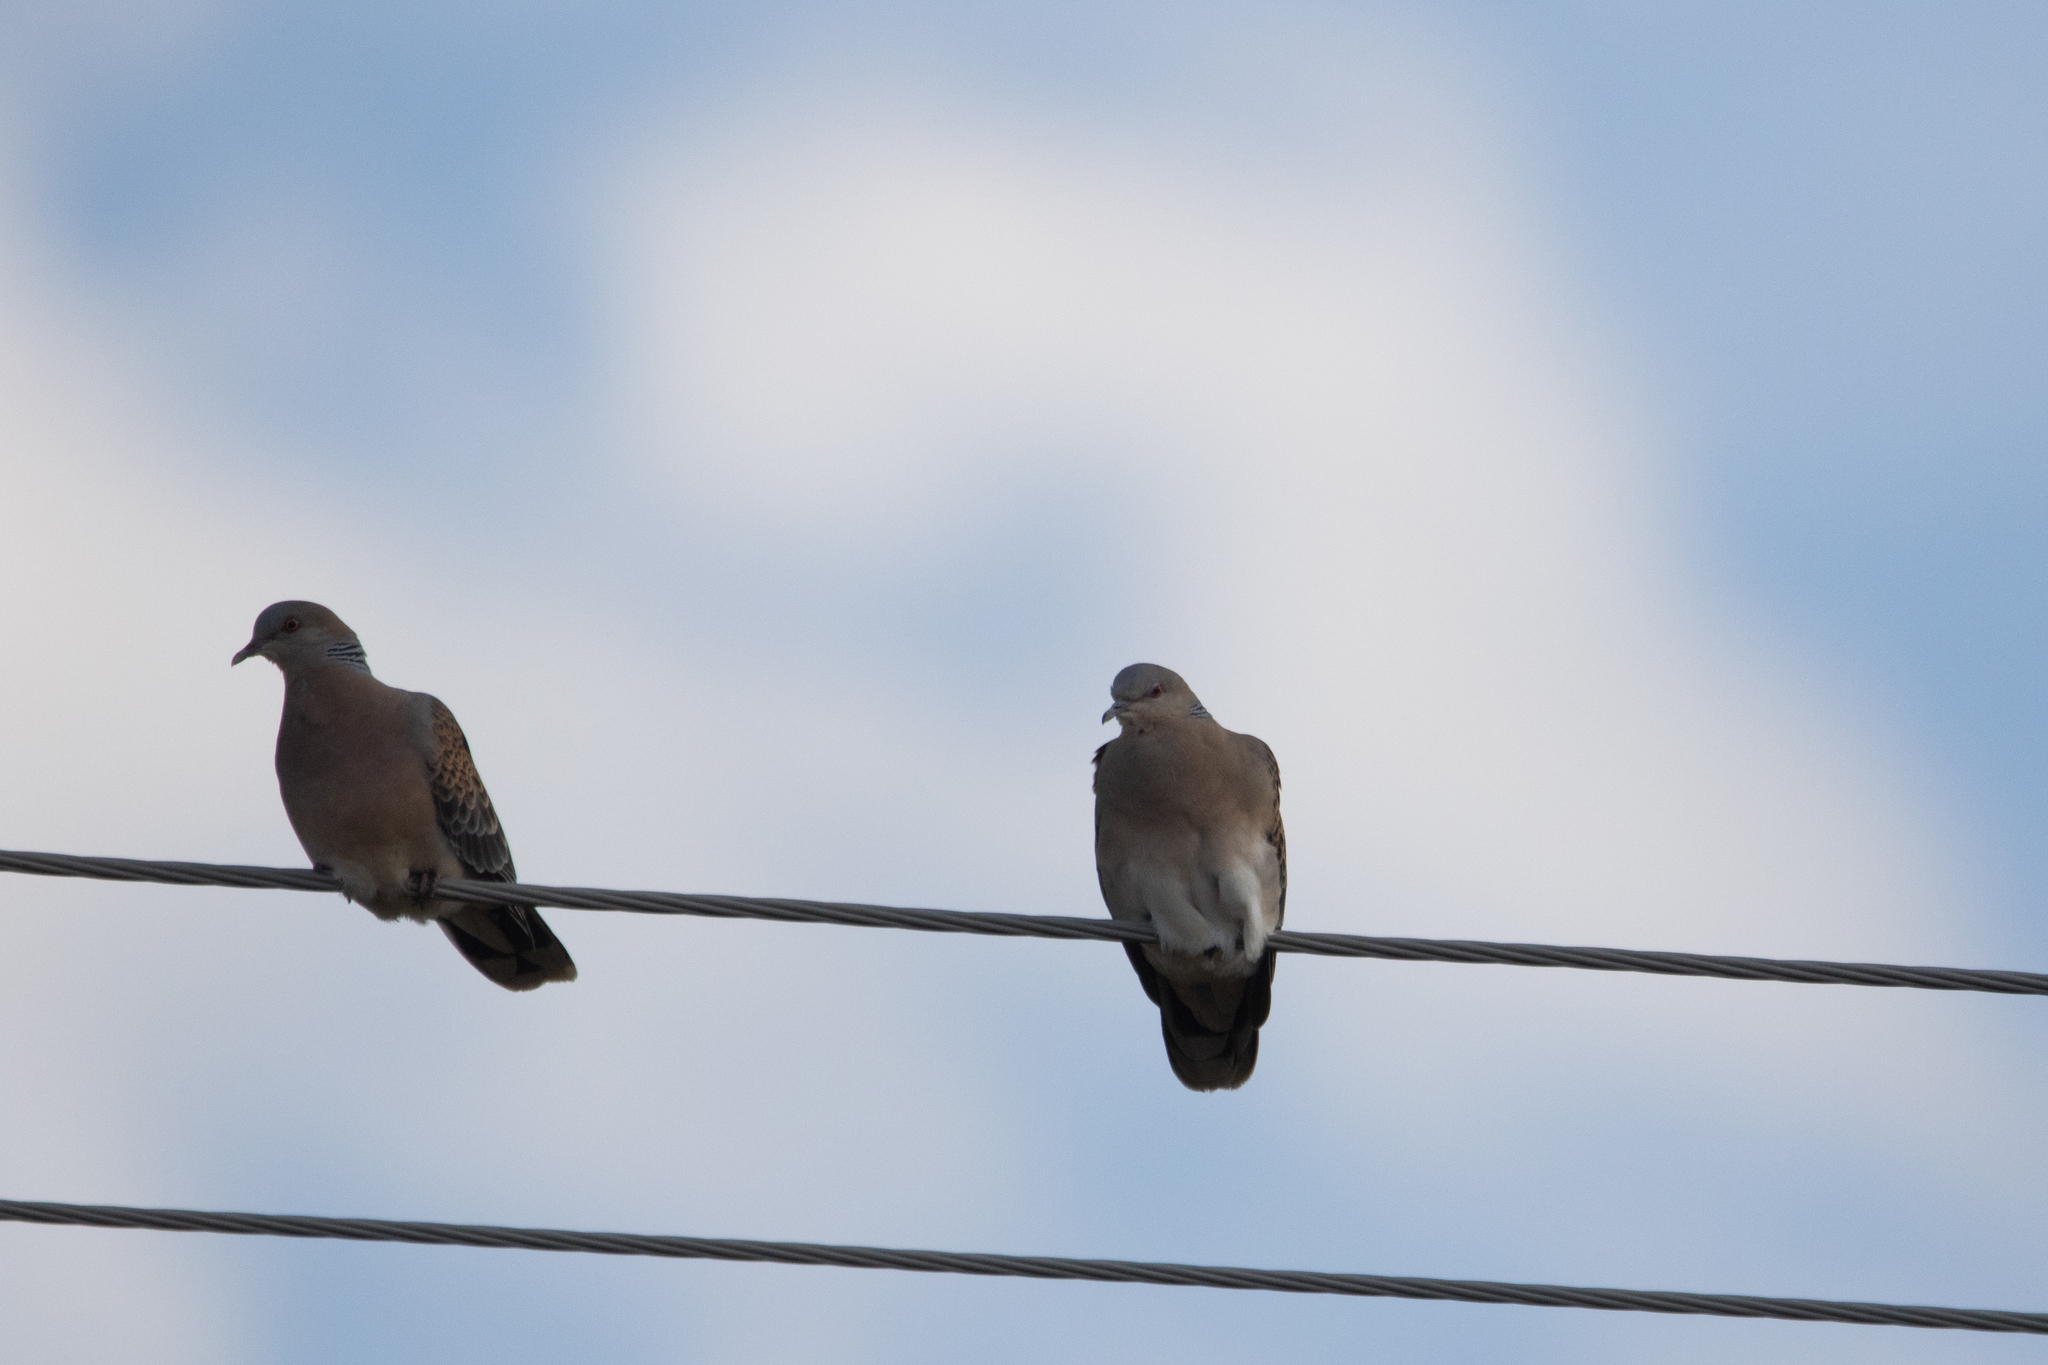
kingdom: Animalia
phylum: Chordata
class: Aves
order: Columbiformes
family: Columbidae
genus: Streptopelia
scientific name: Streptopelia orientalis
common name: Oriental turtle dove
